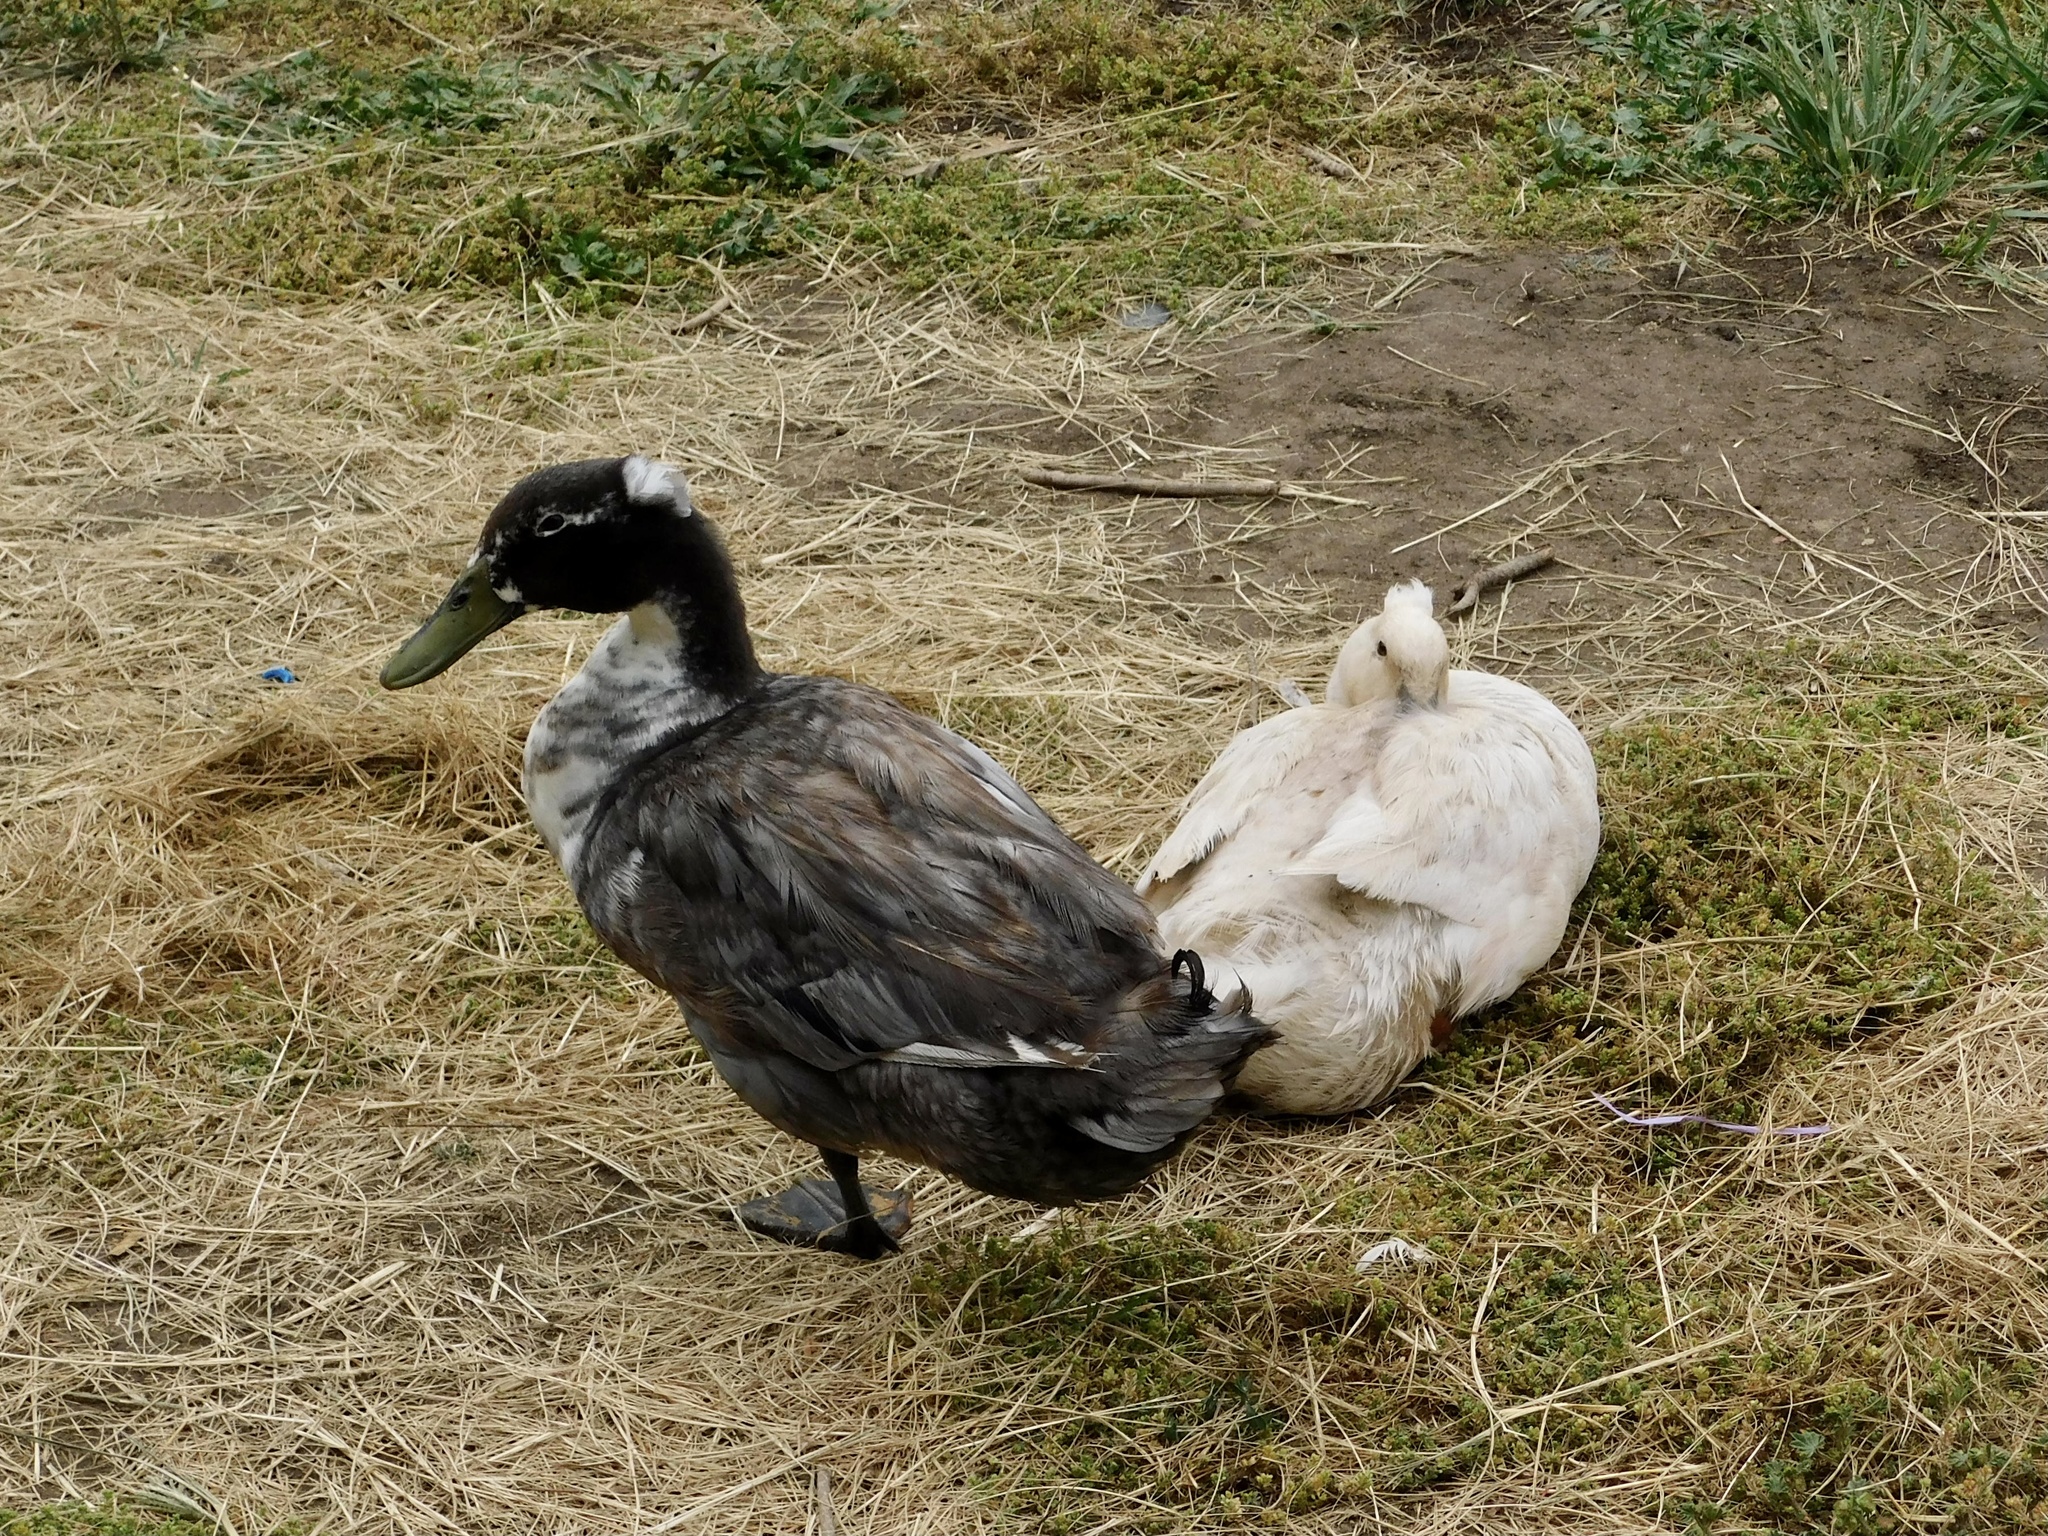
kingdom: Animalia
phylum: Chordata
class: Aves
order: Anseriformes
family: Anatidae
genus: Anas
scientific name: Anas platyrhynchos
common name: Mallard
